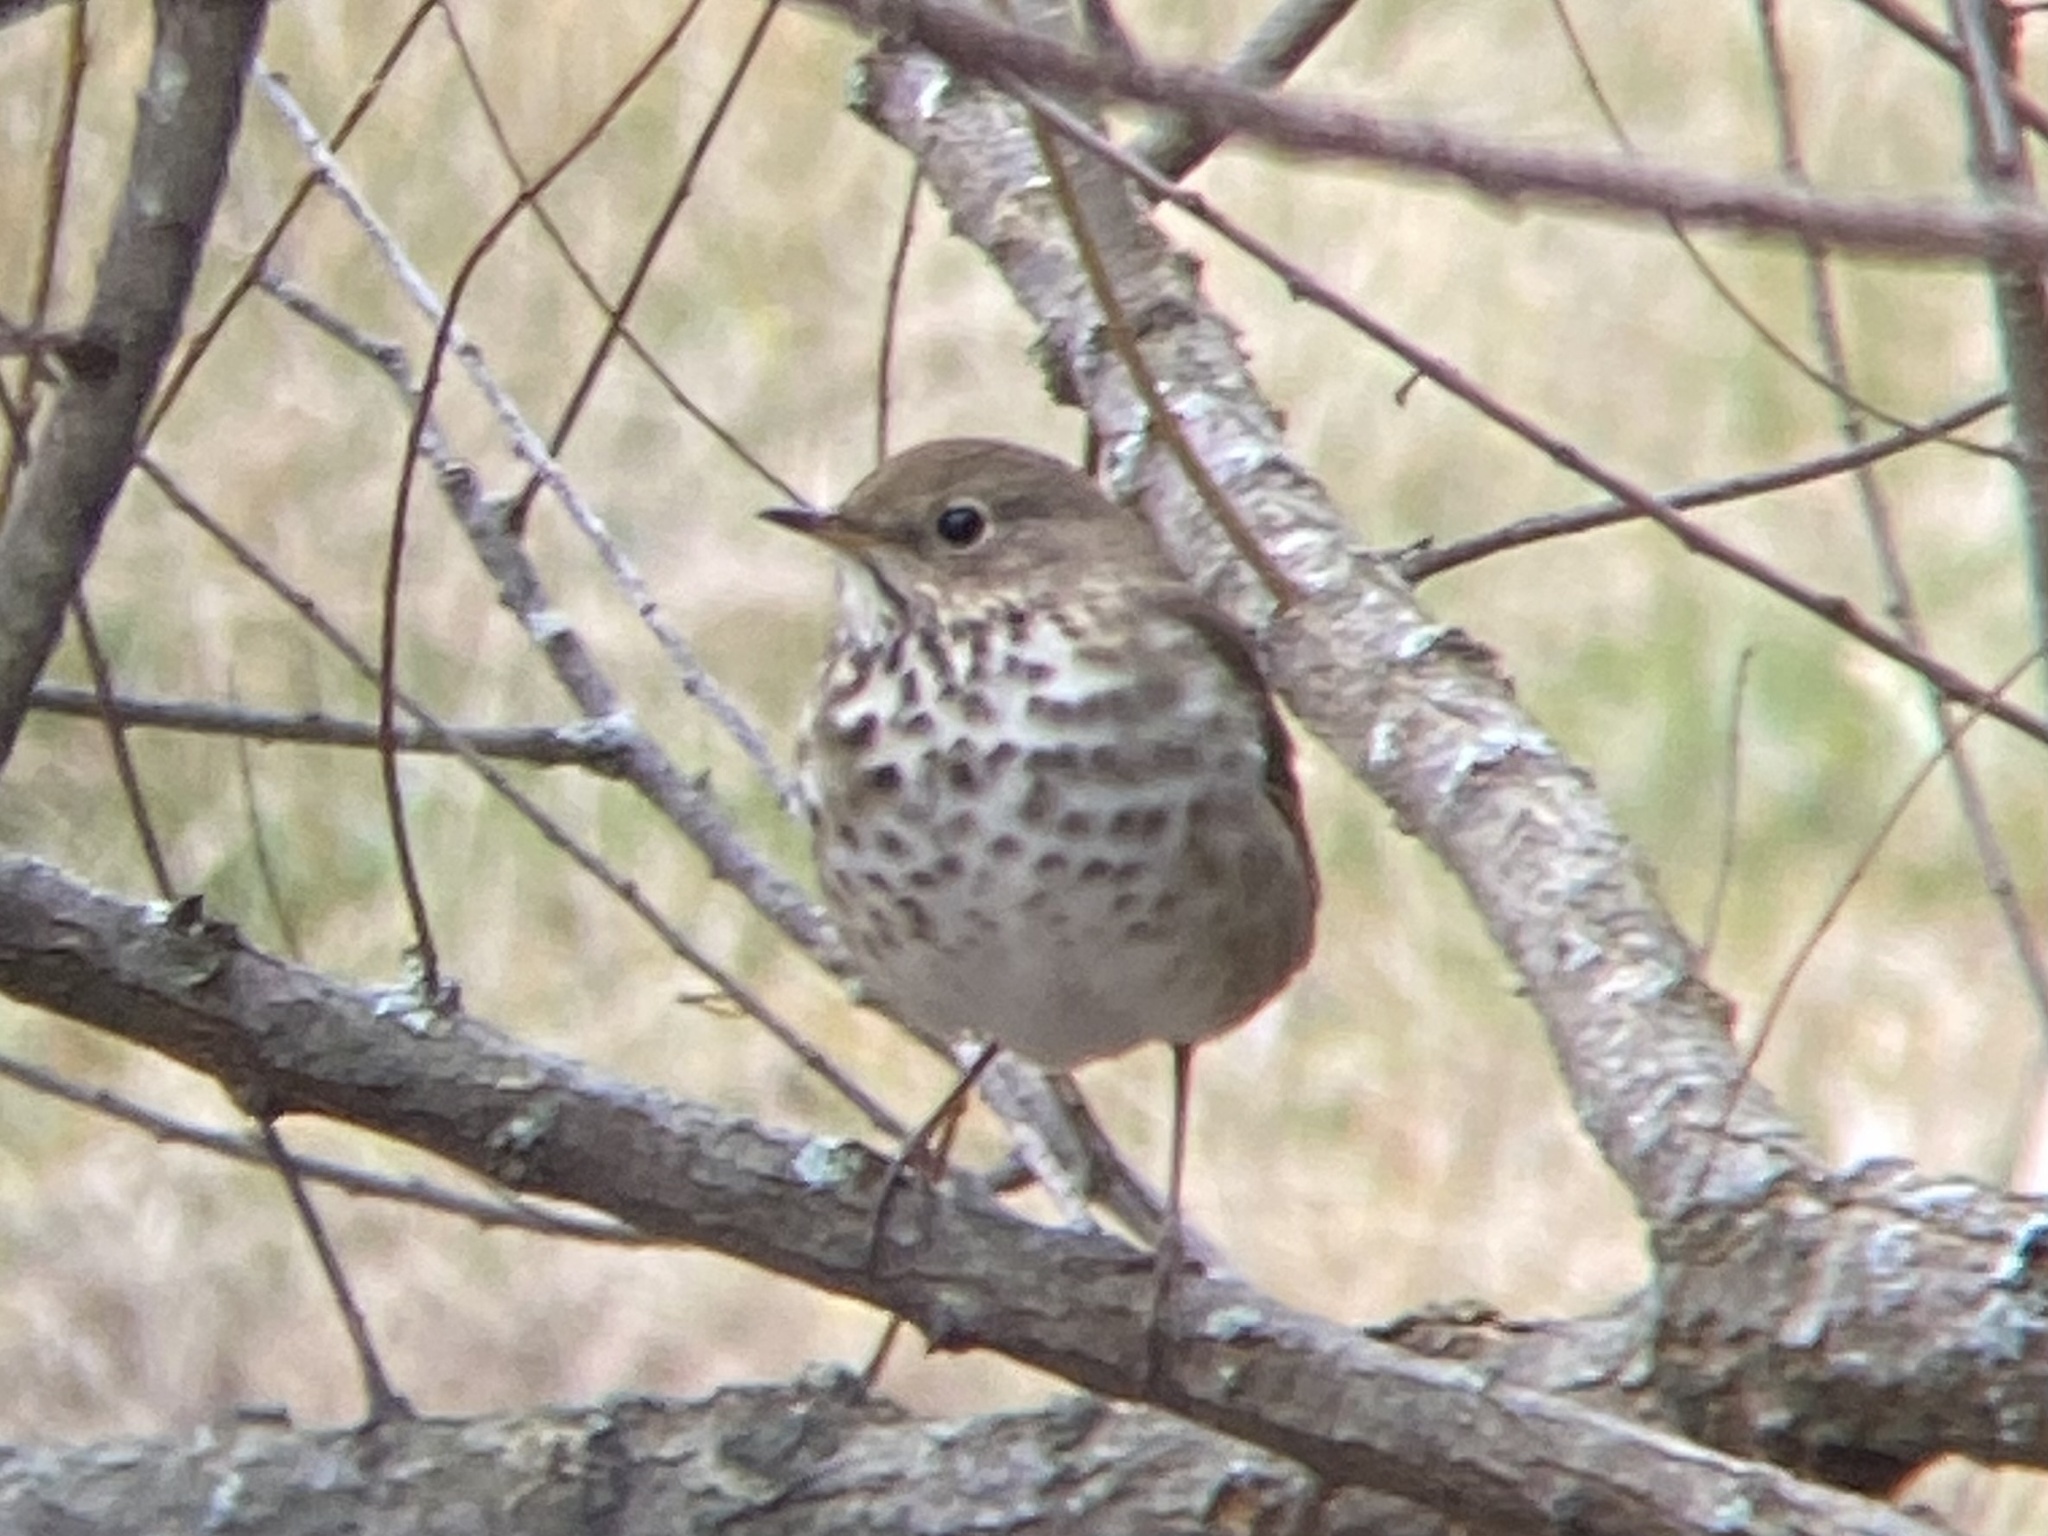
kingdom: Animalia
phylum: Chordata
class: Aves
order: Passeriformes
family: Turdidae
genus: Catharus
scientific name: Catharus guttatus
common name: Hermit thrush
